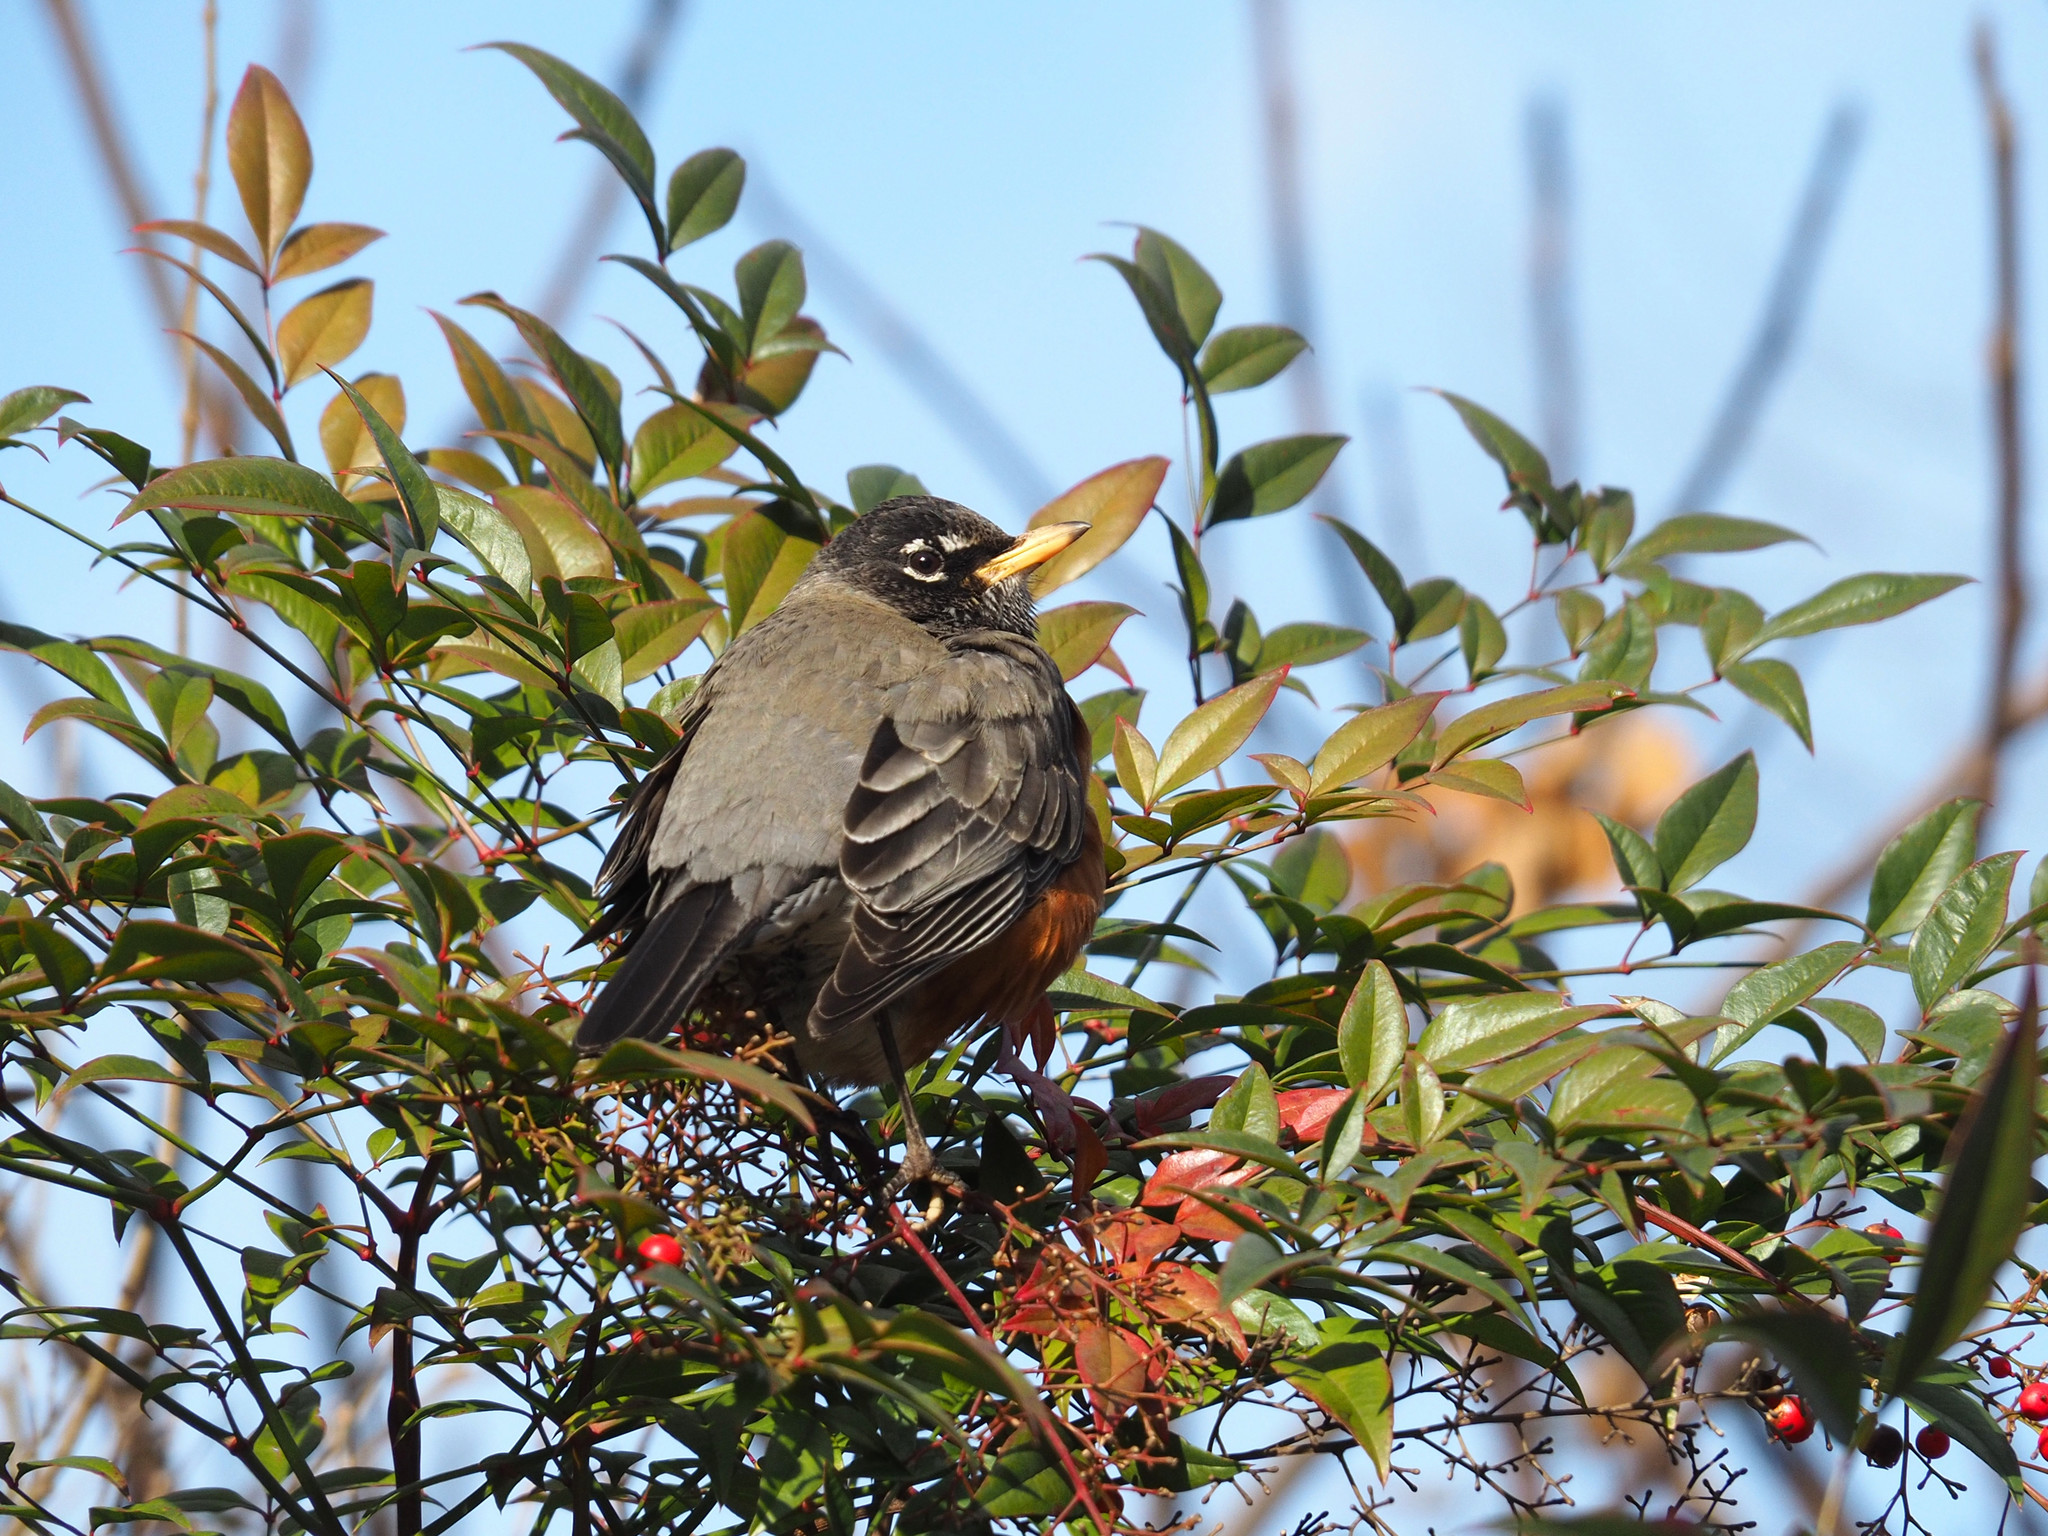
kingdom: Animalia
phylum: Chordata
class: Aves
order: Passeriformes
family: Turdidae
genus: Turdus
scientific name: Turdus migratorius
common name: American robin
